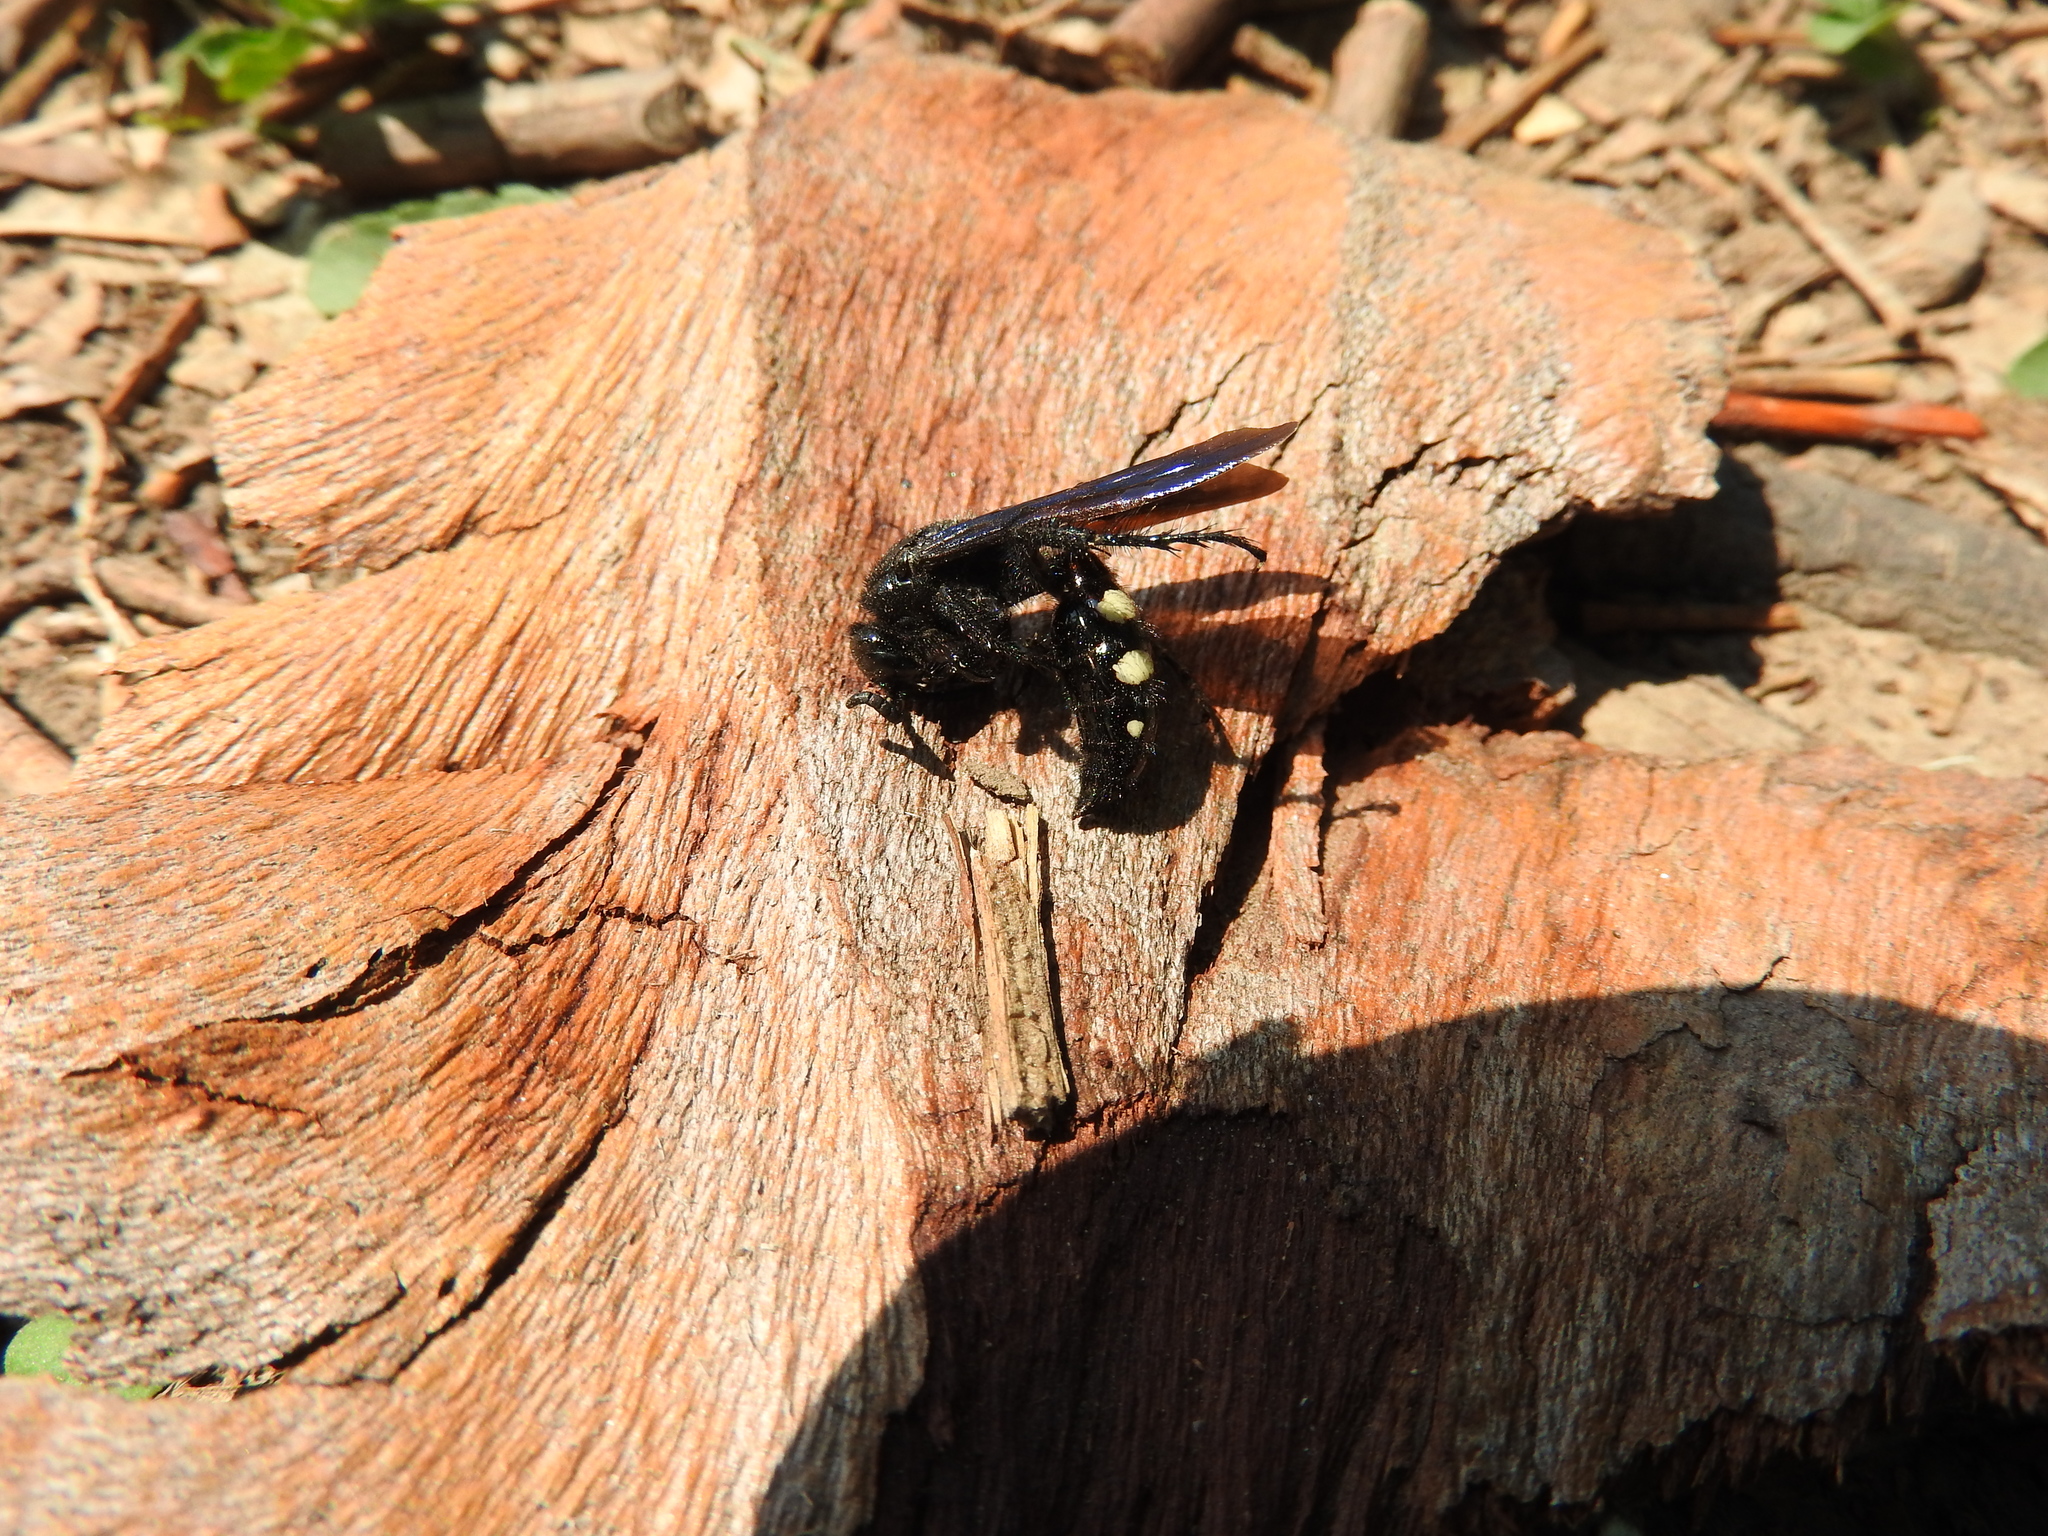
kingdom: Animalia
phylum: Arthropoda
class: Insecta
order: Hymenoptera
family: Scoliidae
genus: Scolia
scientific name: Scolia guttata
